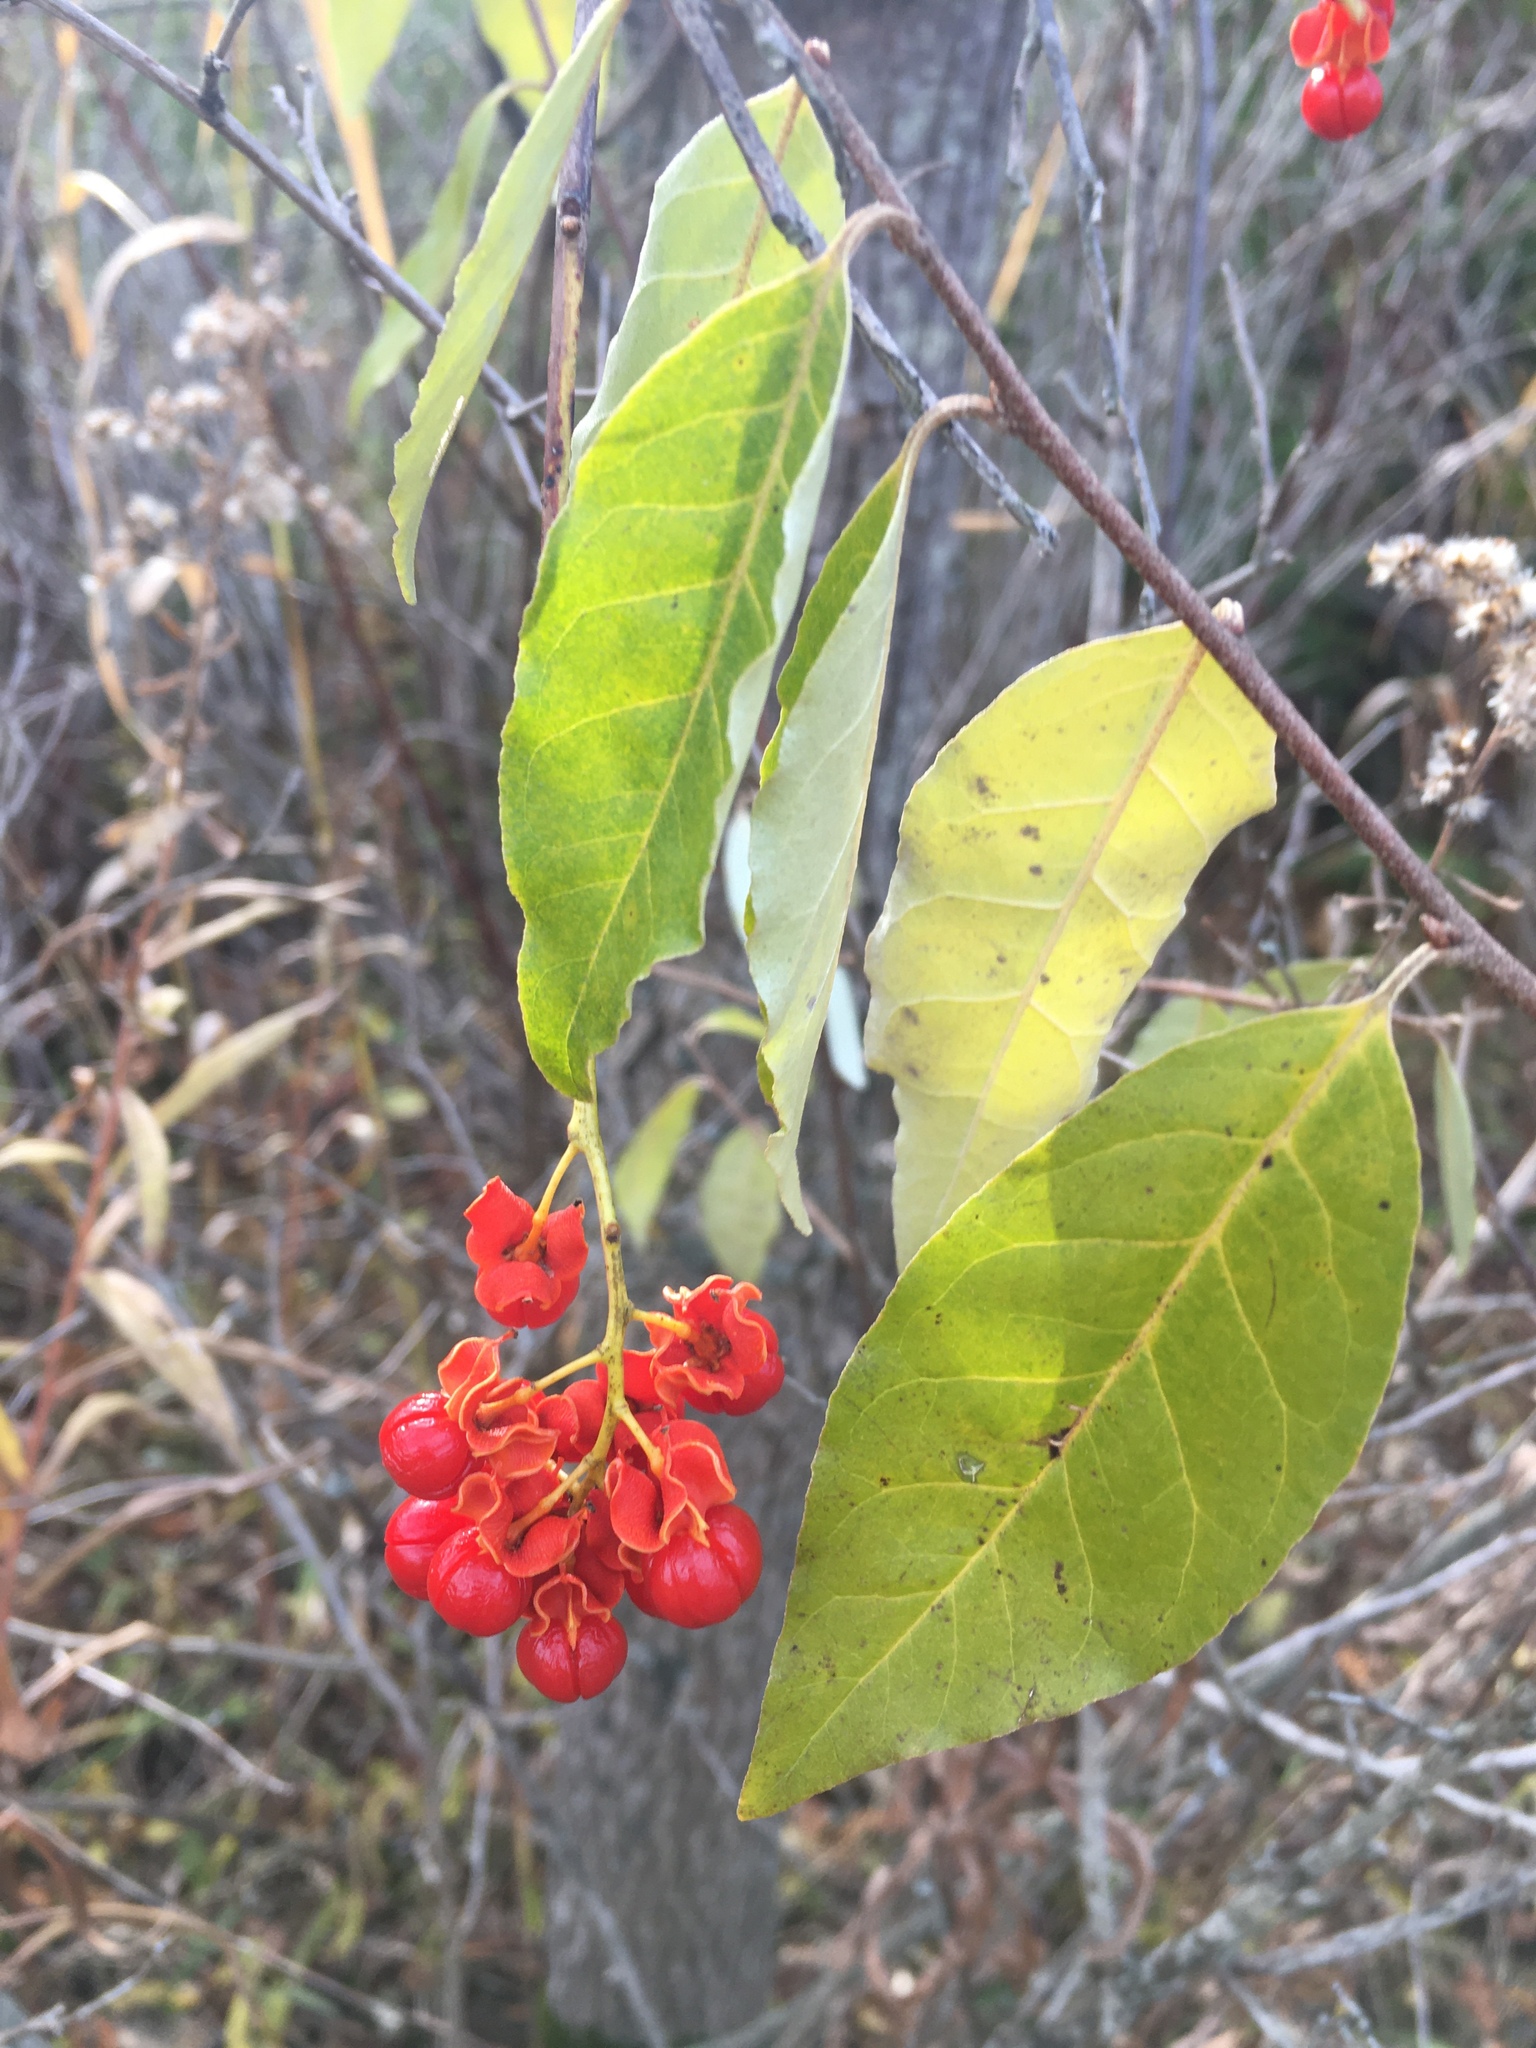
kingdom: Plantae
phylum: Tracheophyta
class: Magnoliopsida
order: Celastrales
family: Celastraceae
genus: Celastrus
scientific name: Celastrus scandens
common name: American bittersweet
